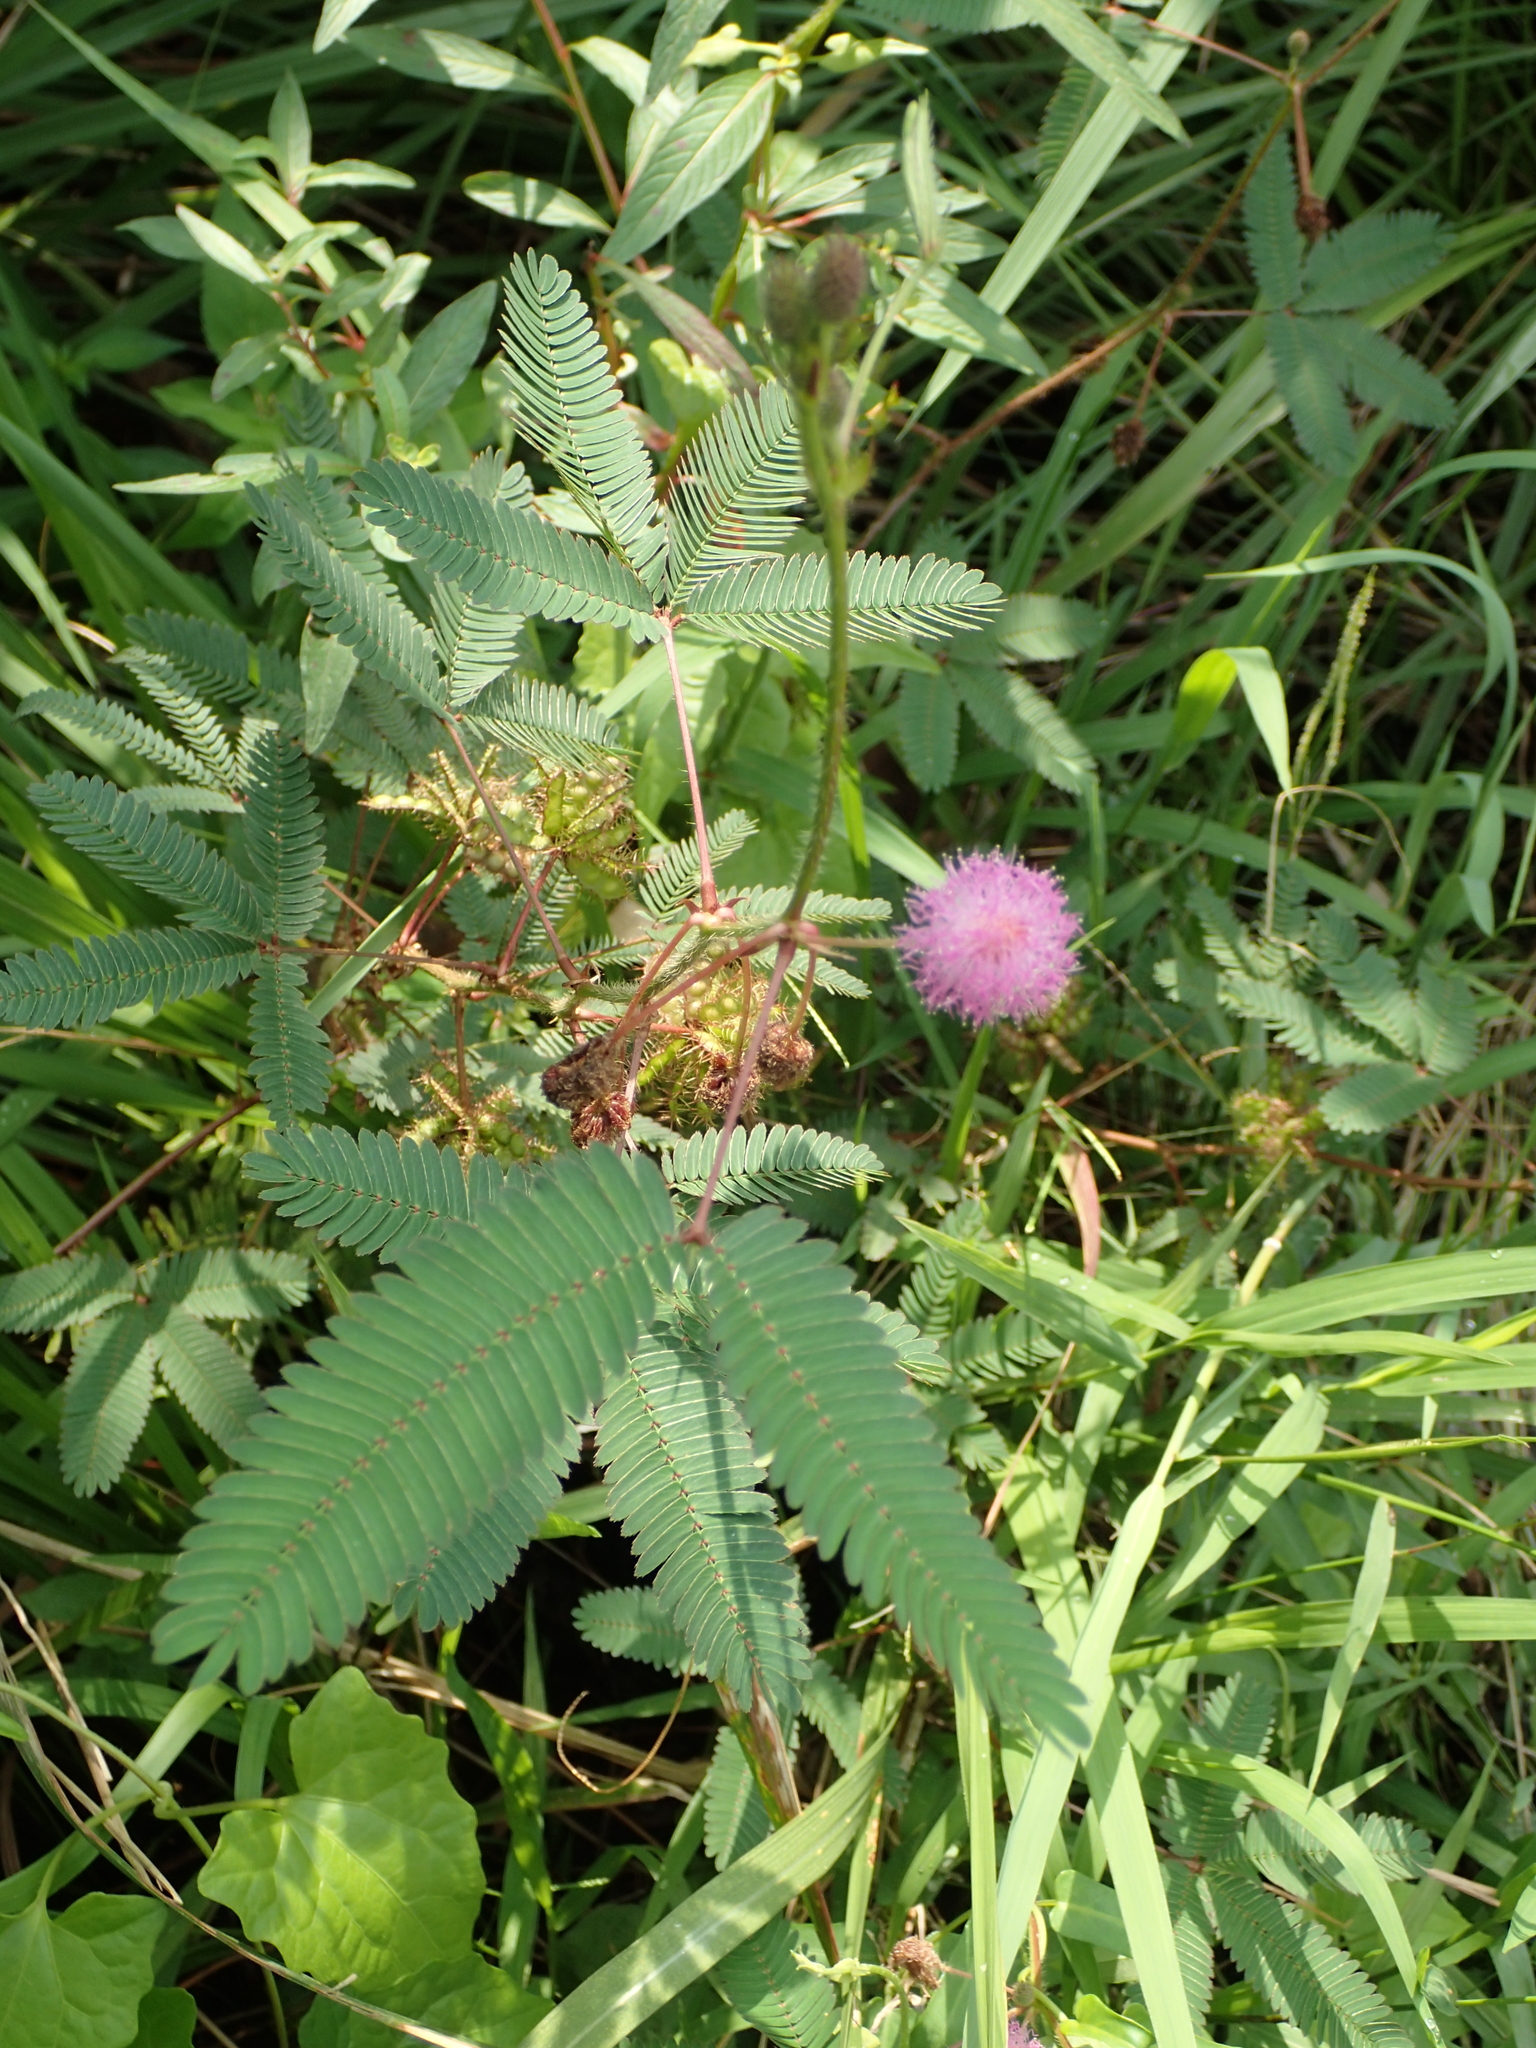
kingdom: Plantae
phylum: Tracheophyta
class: Magnoliopsida
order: Fabales
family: Fabaceae
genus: Mimosa
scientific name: Mimosa pudica
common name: Sensitive plant
